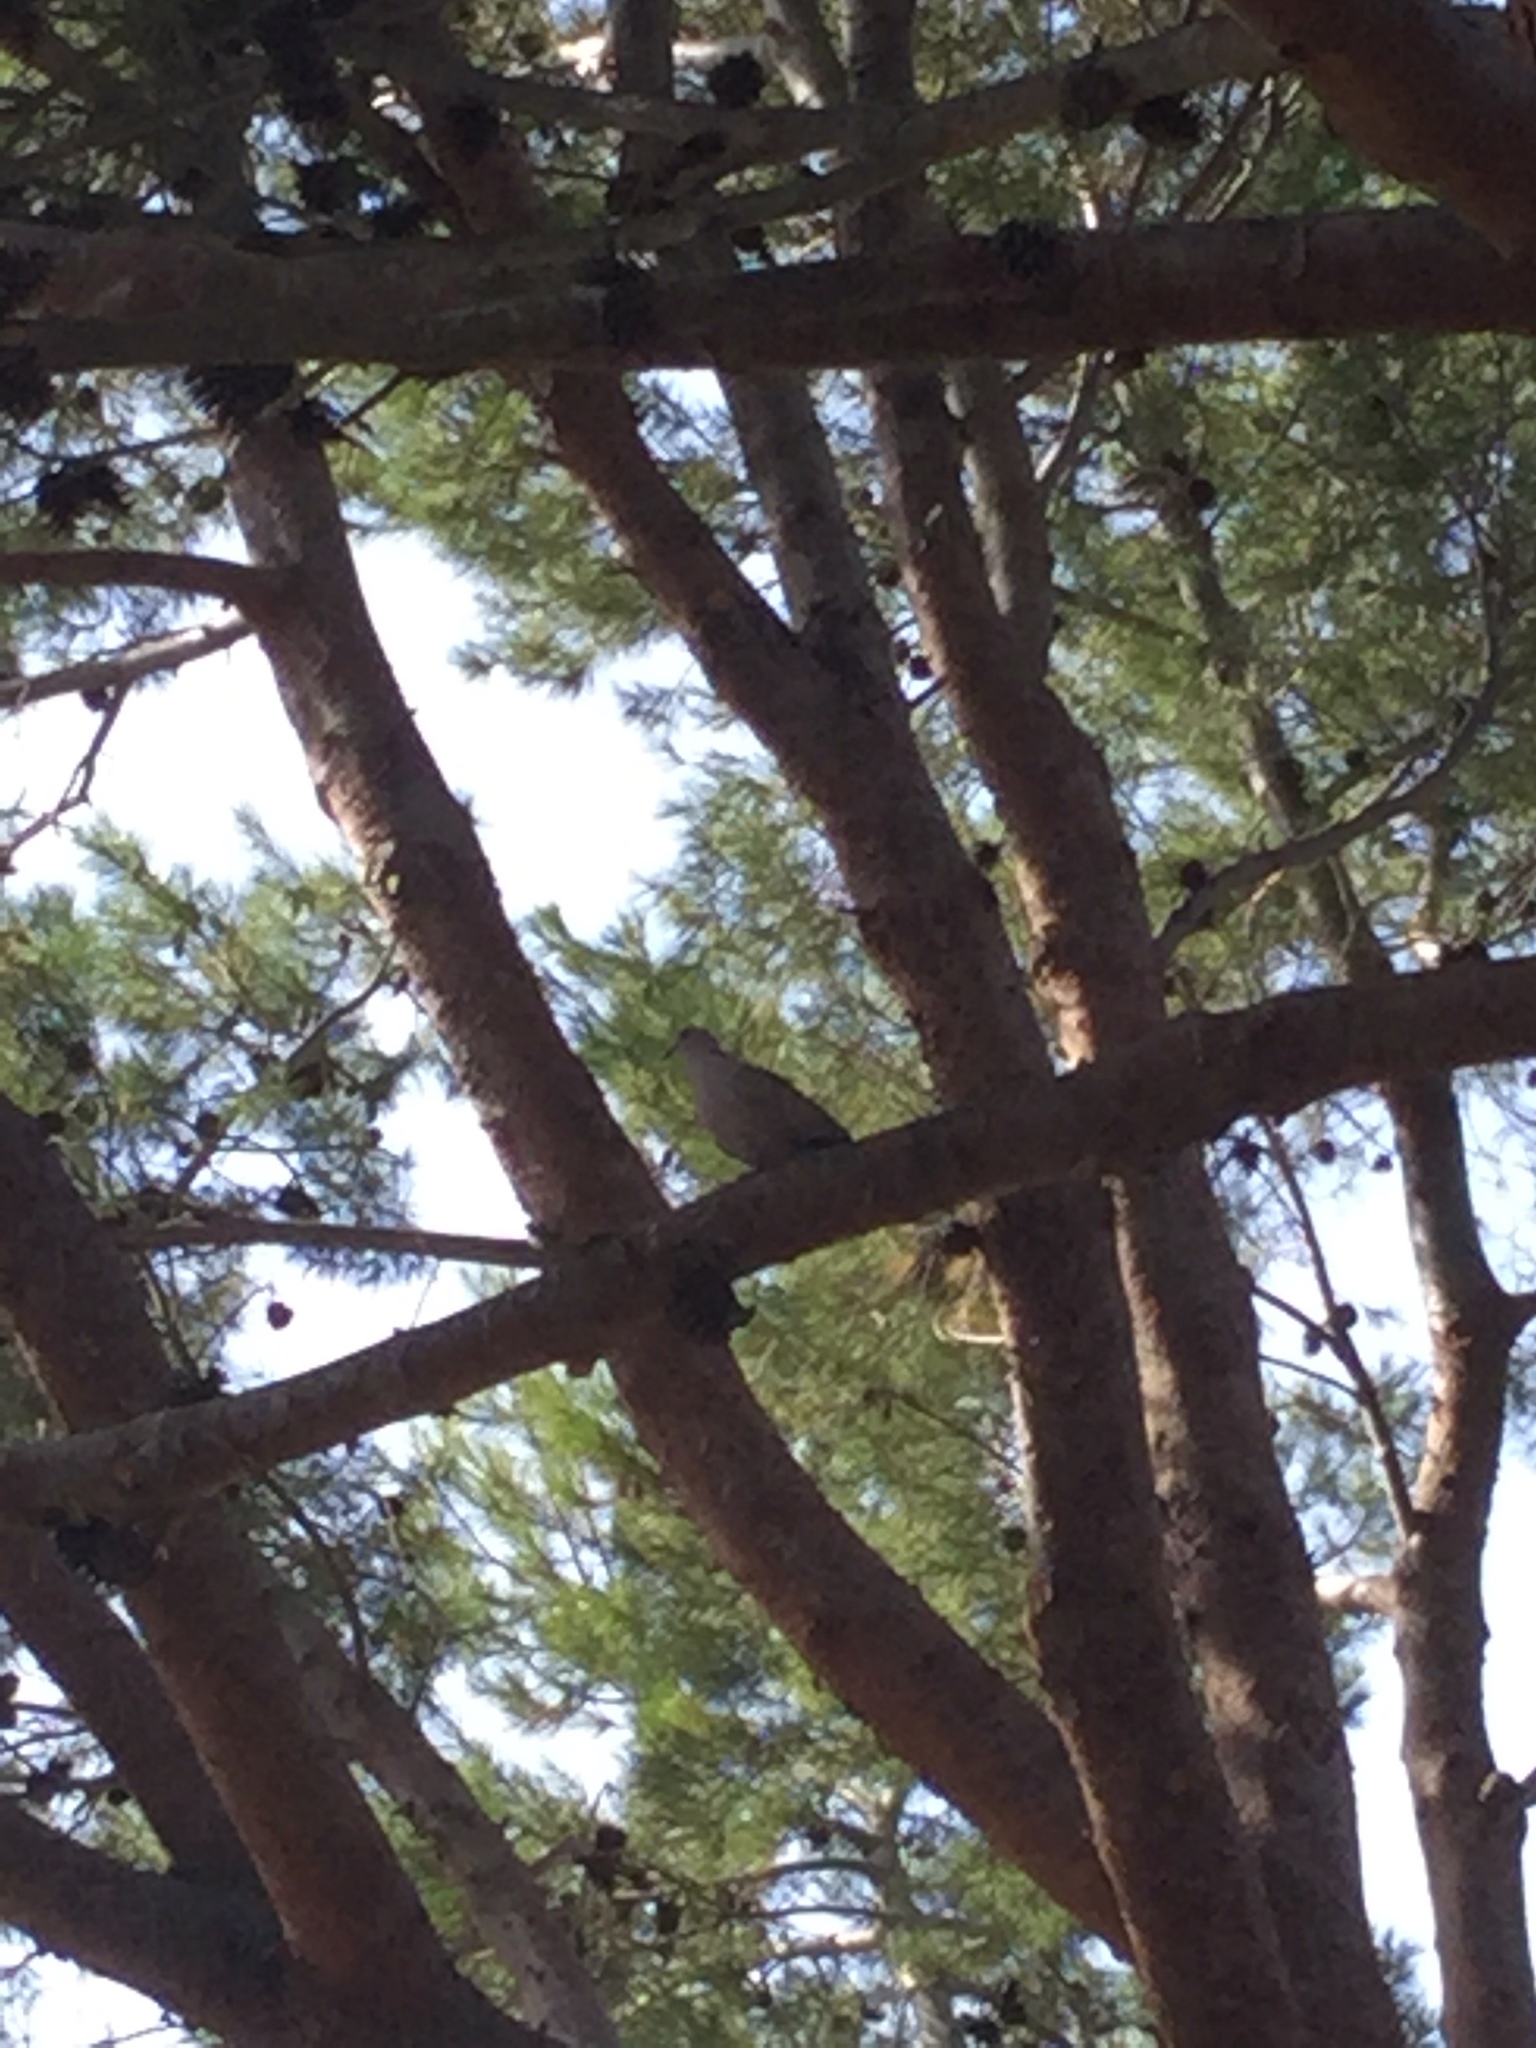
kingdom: Animalia
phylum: Chordata
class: Aves
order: Columbiformes
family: Columbidae
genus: Streptopelia
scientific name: Streptopelia decaocto
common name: Eurasian collared dove
